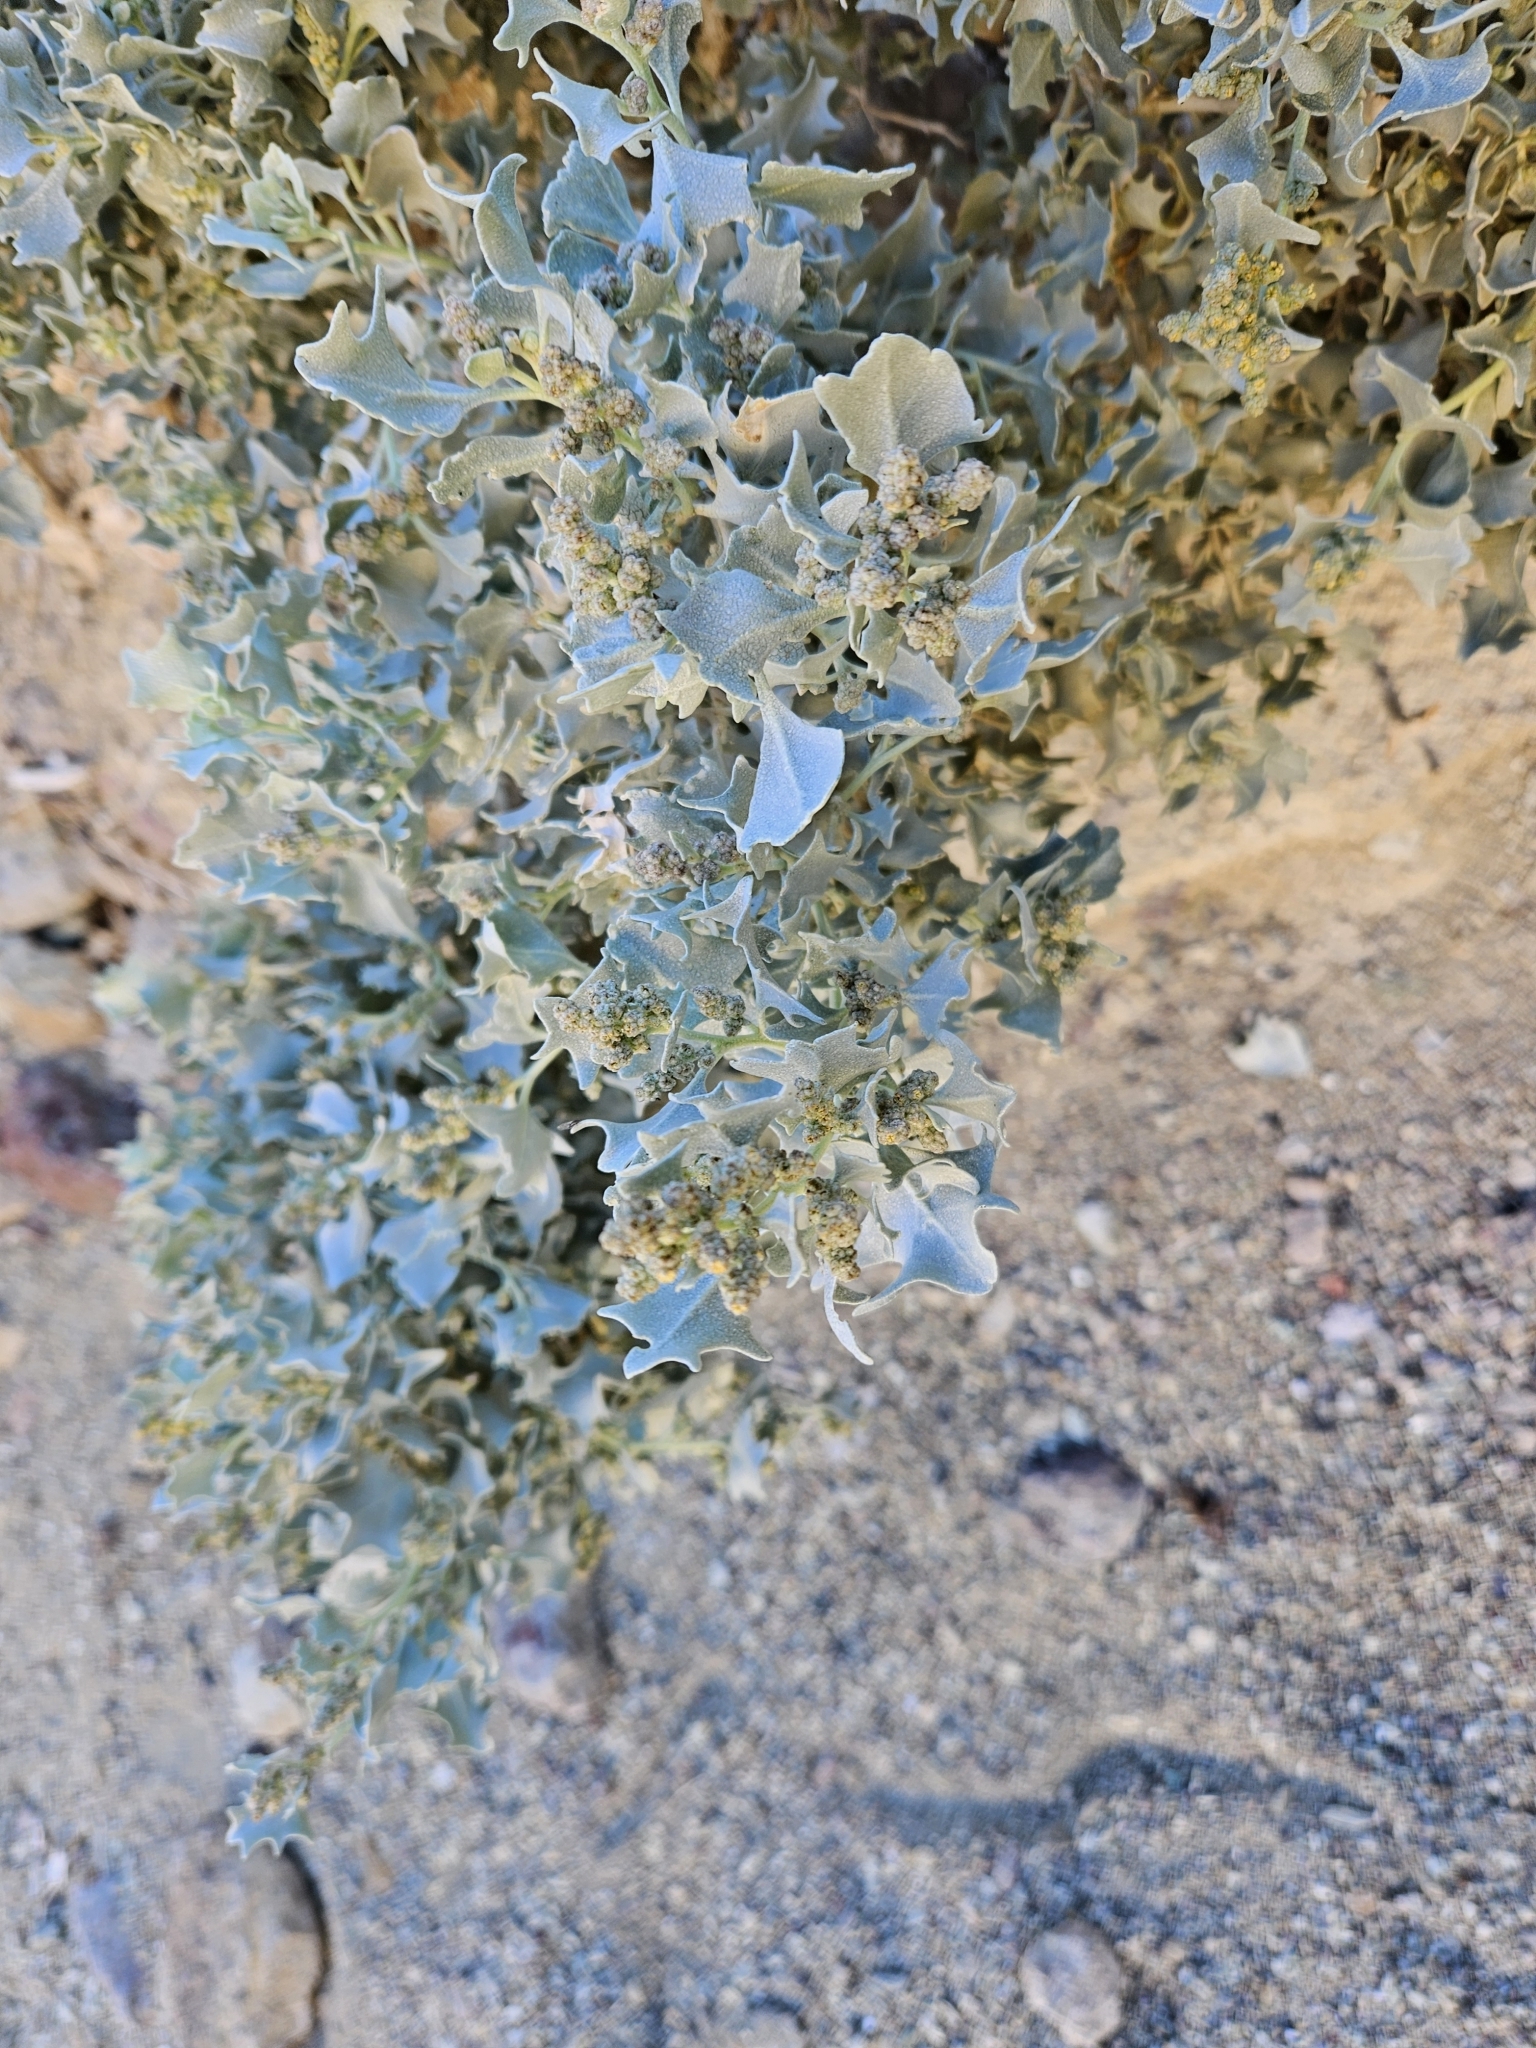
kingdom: Plantae
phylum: Tracheophyta
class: Magnoliopsida
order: Caryophyllales
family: Amaranthaceae
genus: Atriplex
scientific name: Atriplex hymenelytra
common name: Desert-holly
